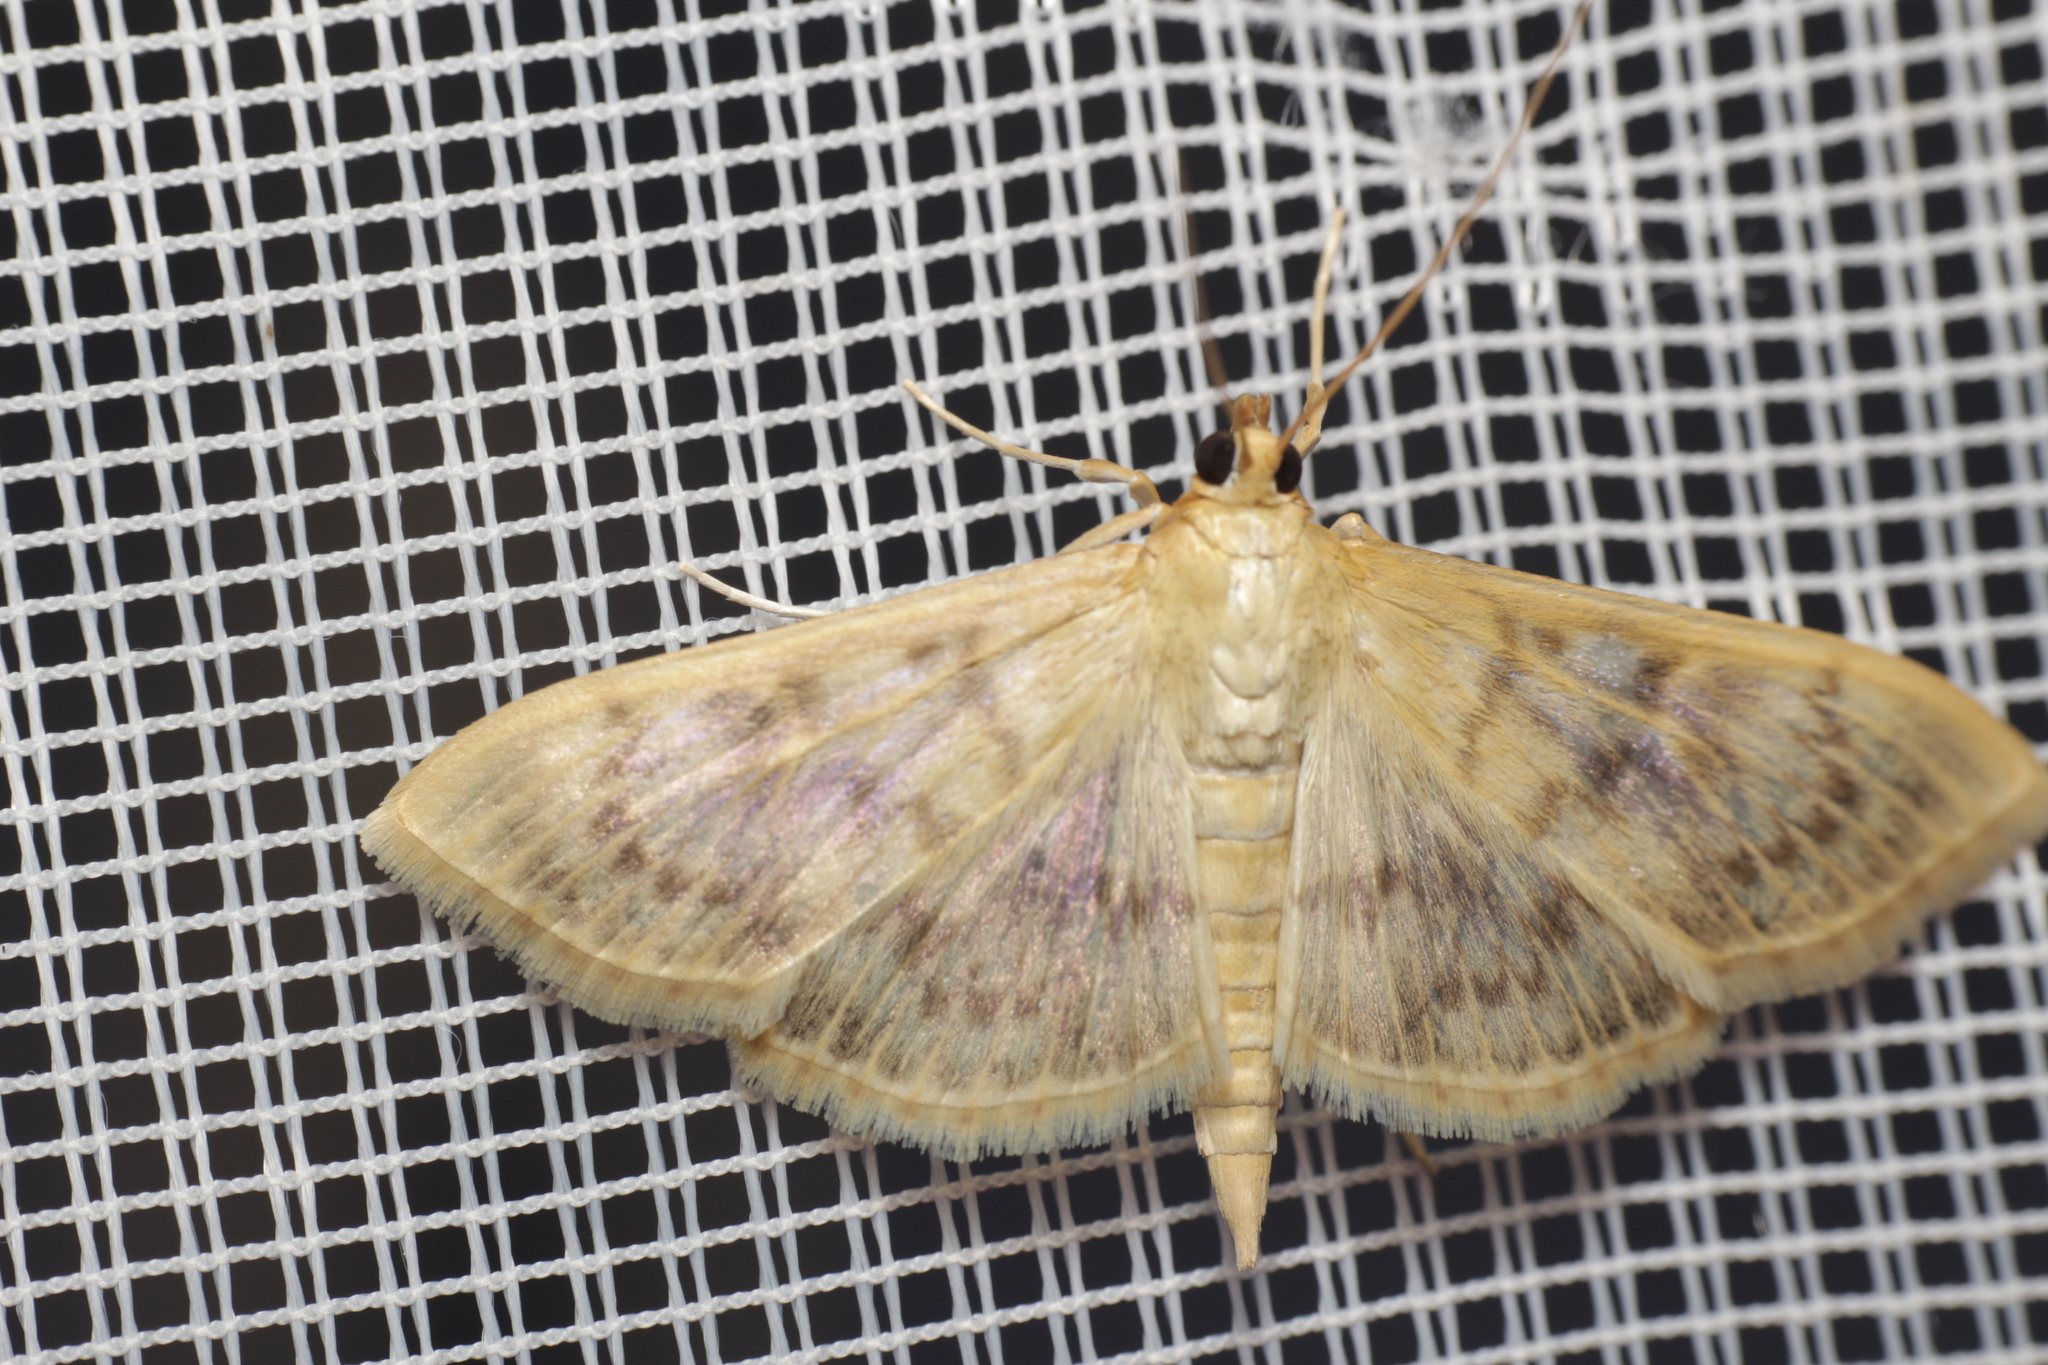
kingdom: Animalia
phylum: Arthropoda
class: Insecta
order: Lepidoptera
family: Crambidae
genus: Patania
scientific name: Patania ruralis
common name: Mother of pearl
